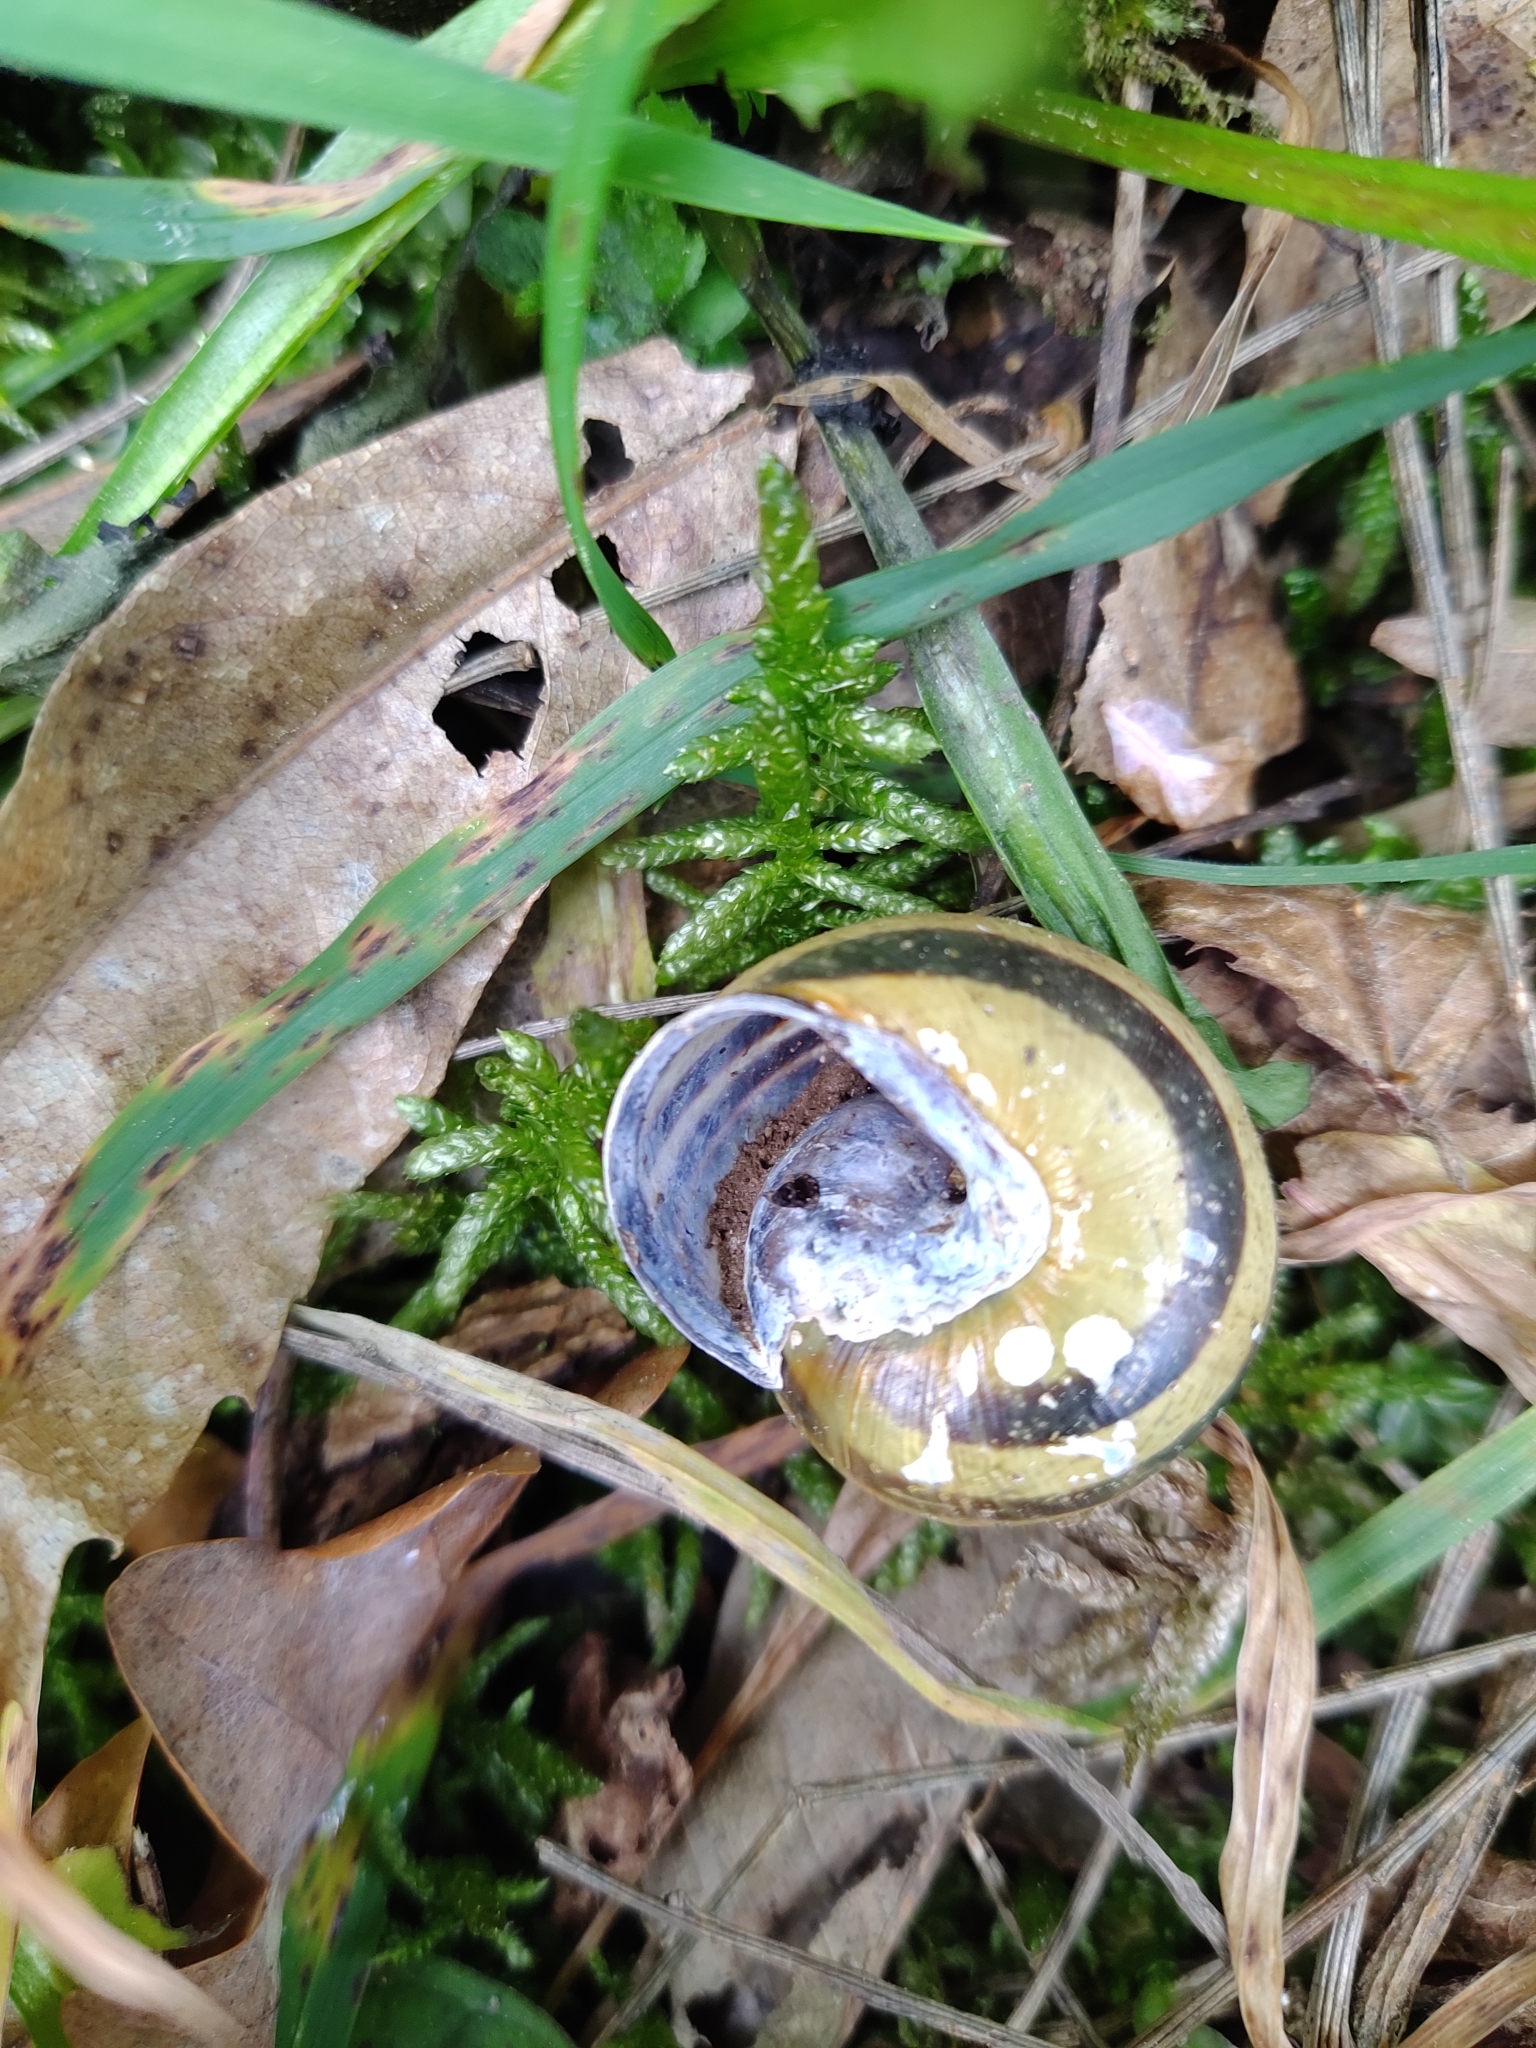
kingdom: Animalia
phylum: Mollusca
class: Gastropoda
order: Stylommatophora
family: Helicidae
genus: Cepaea
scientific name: Cepaea nemoralis
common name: Grovesnail
